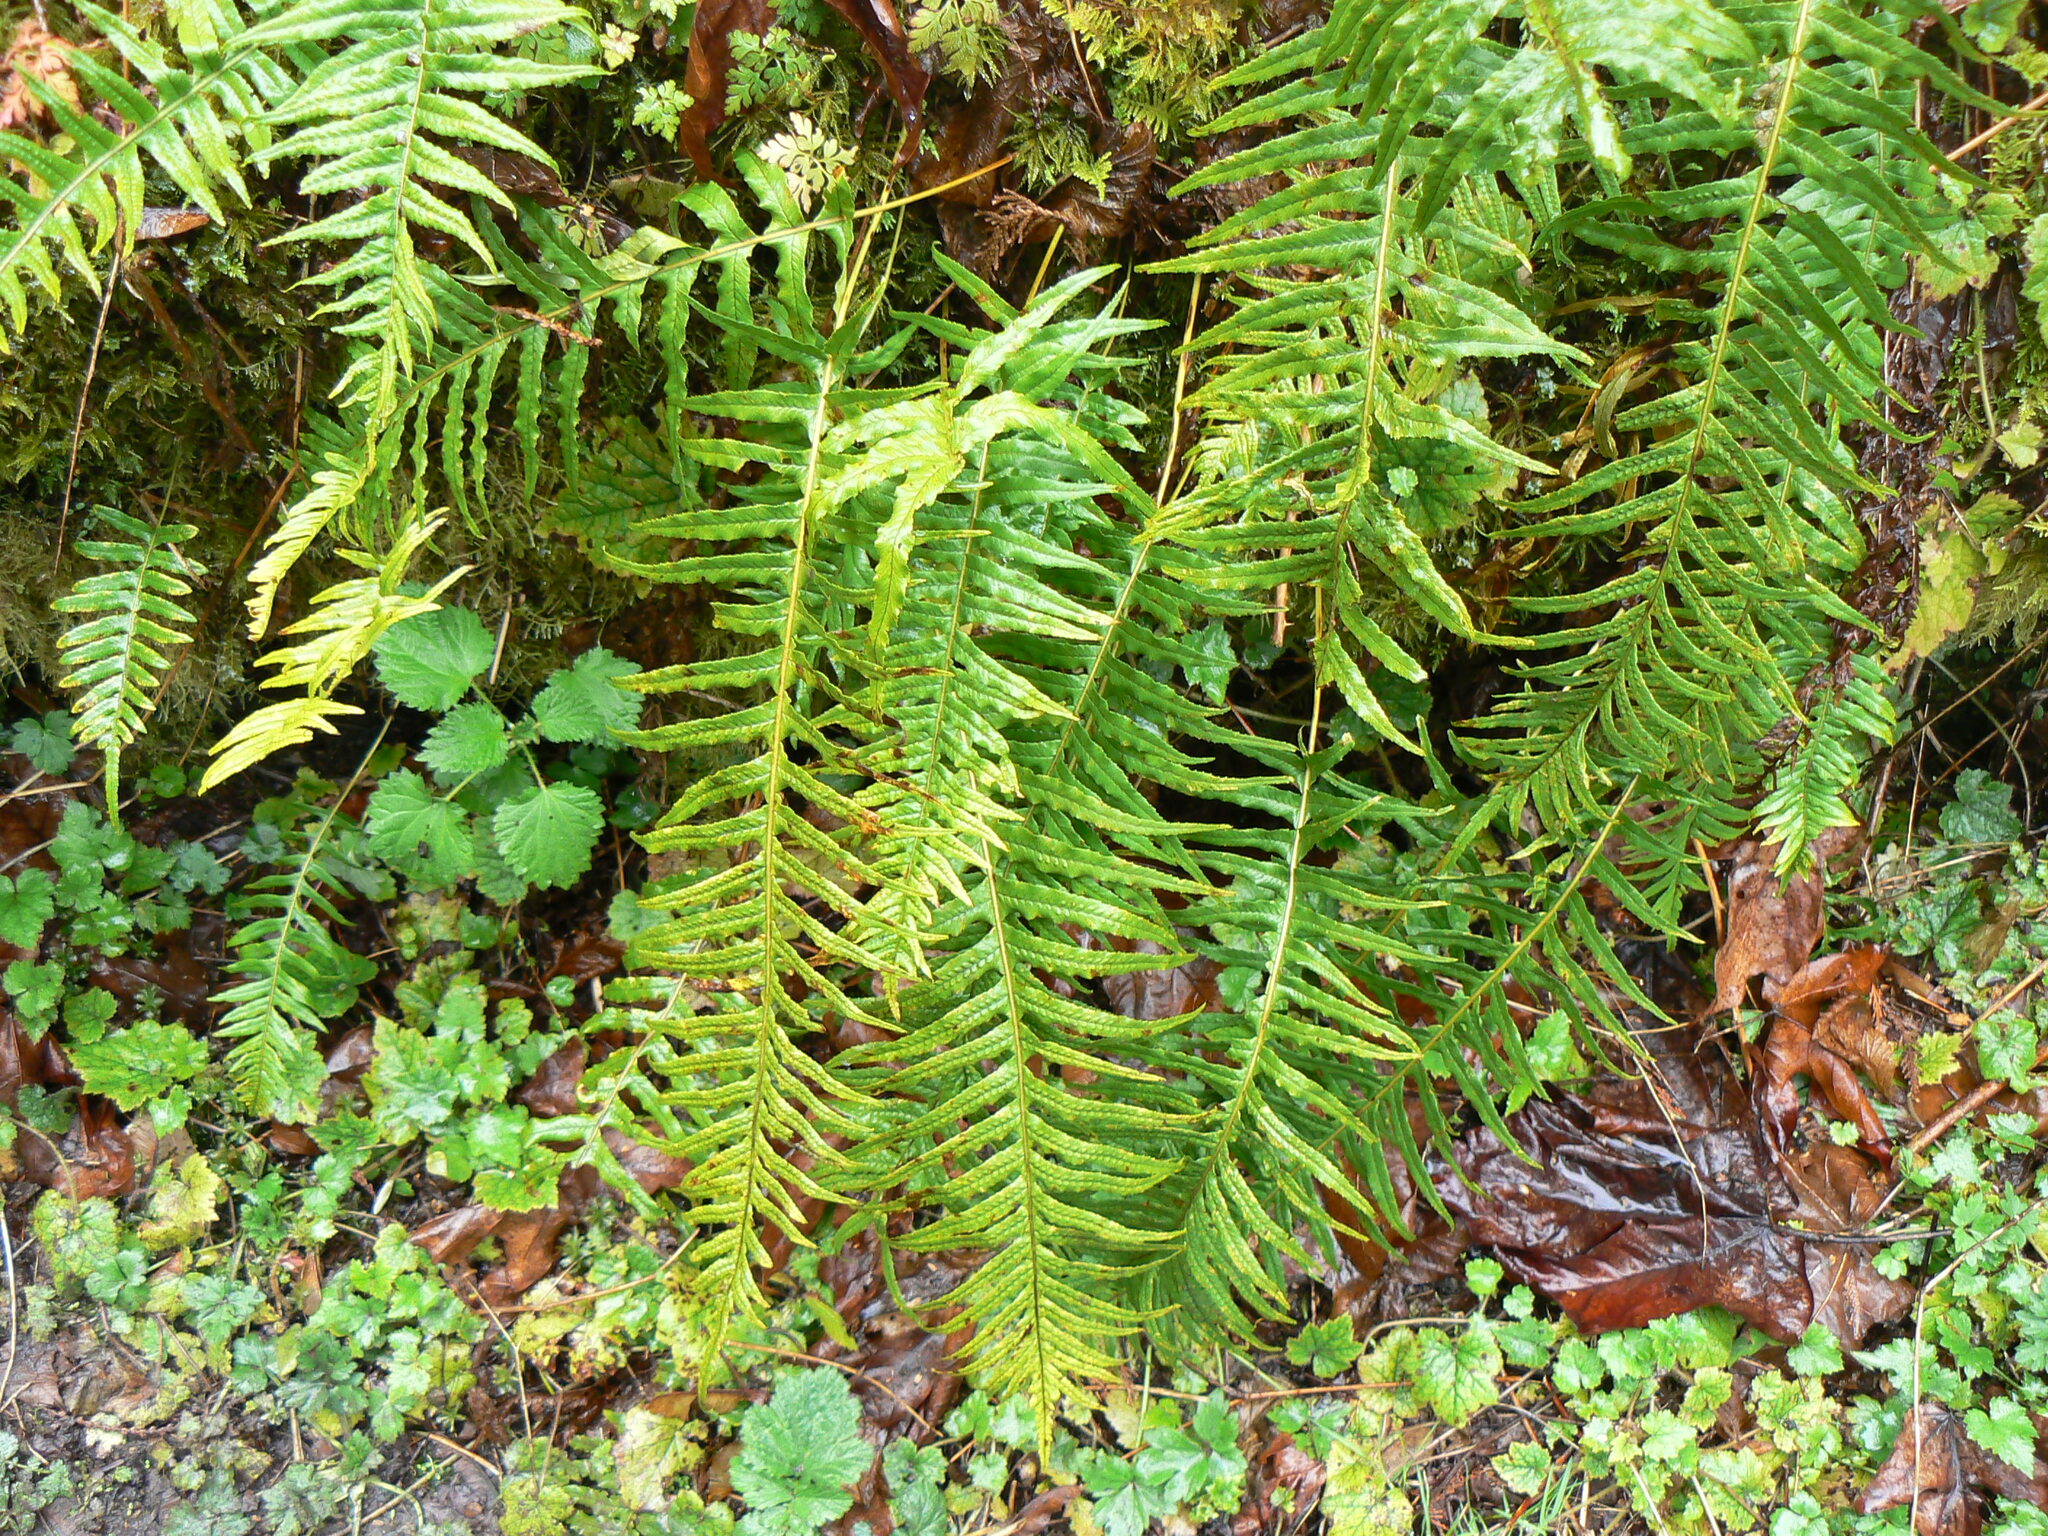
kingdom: Plantae
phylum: Tracheophyta
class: Polypodiopsida
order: Polypodiales
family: Polypodiaceae
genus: Polypodium
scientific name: Polypodium glycyrrhiza
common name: Licorice fern
